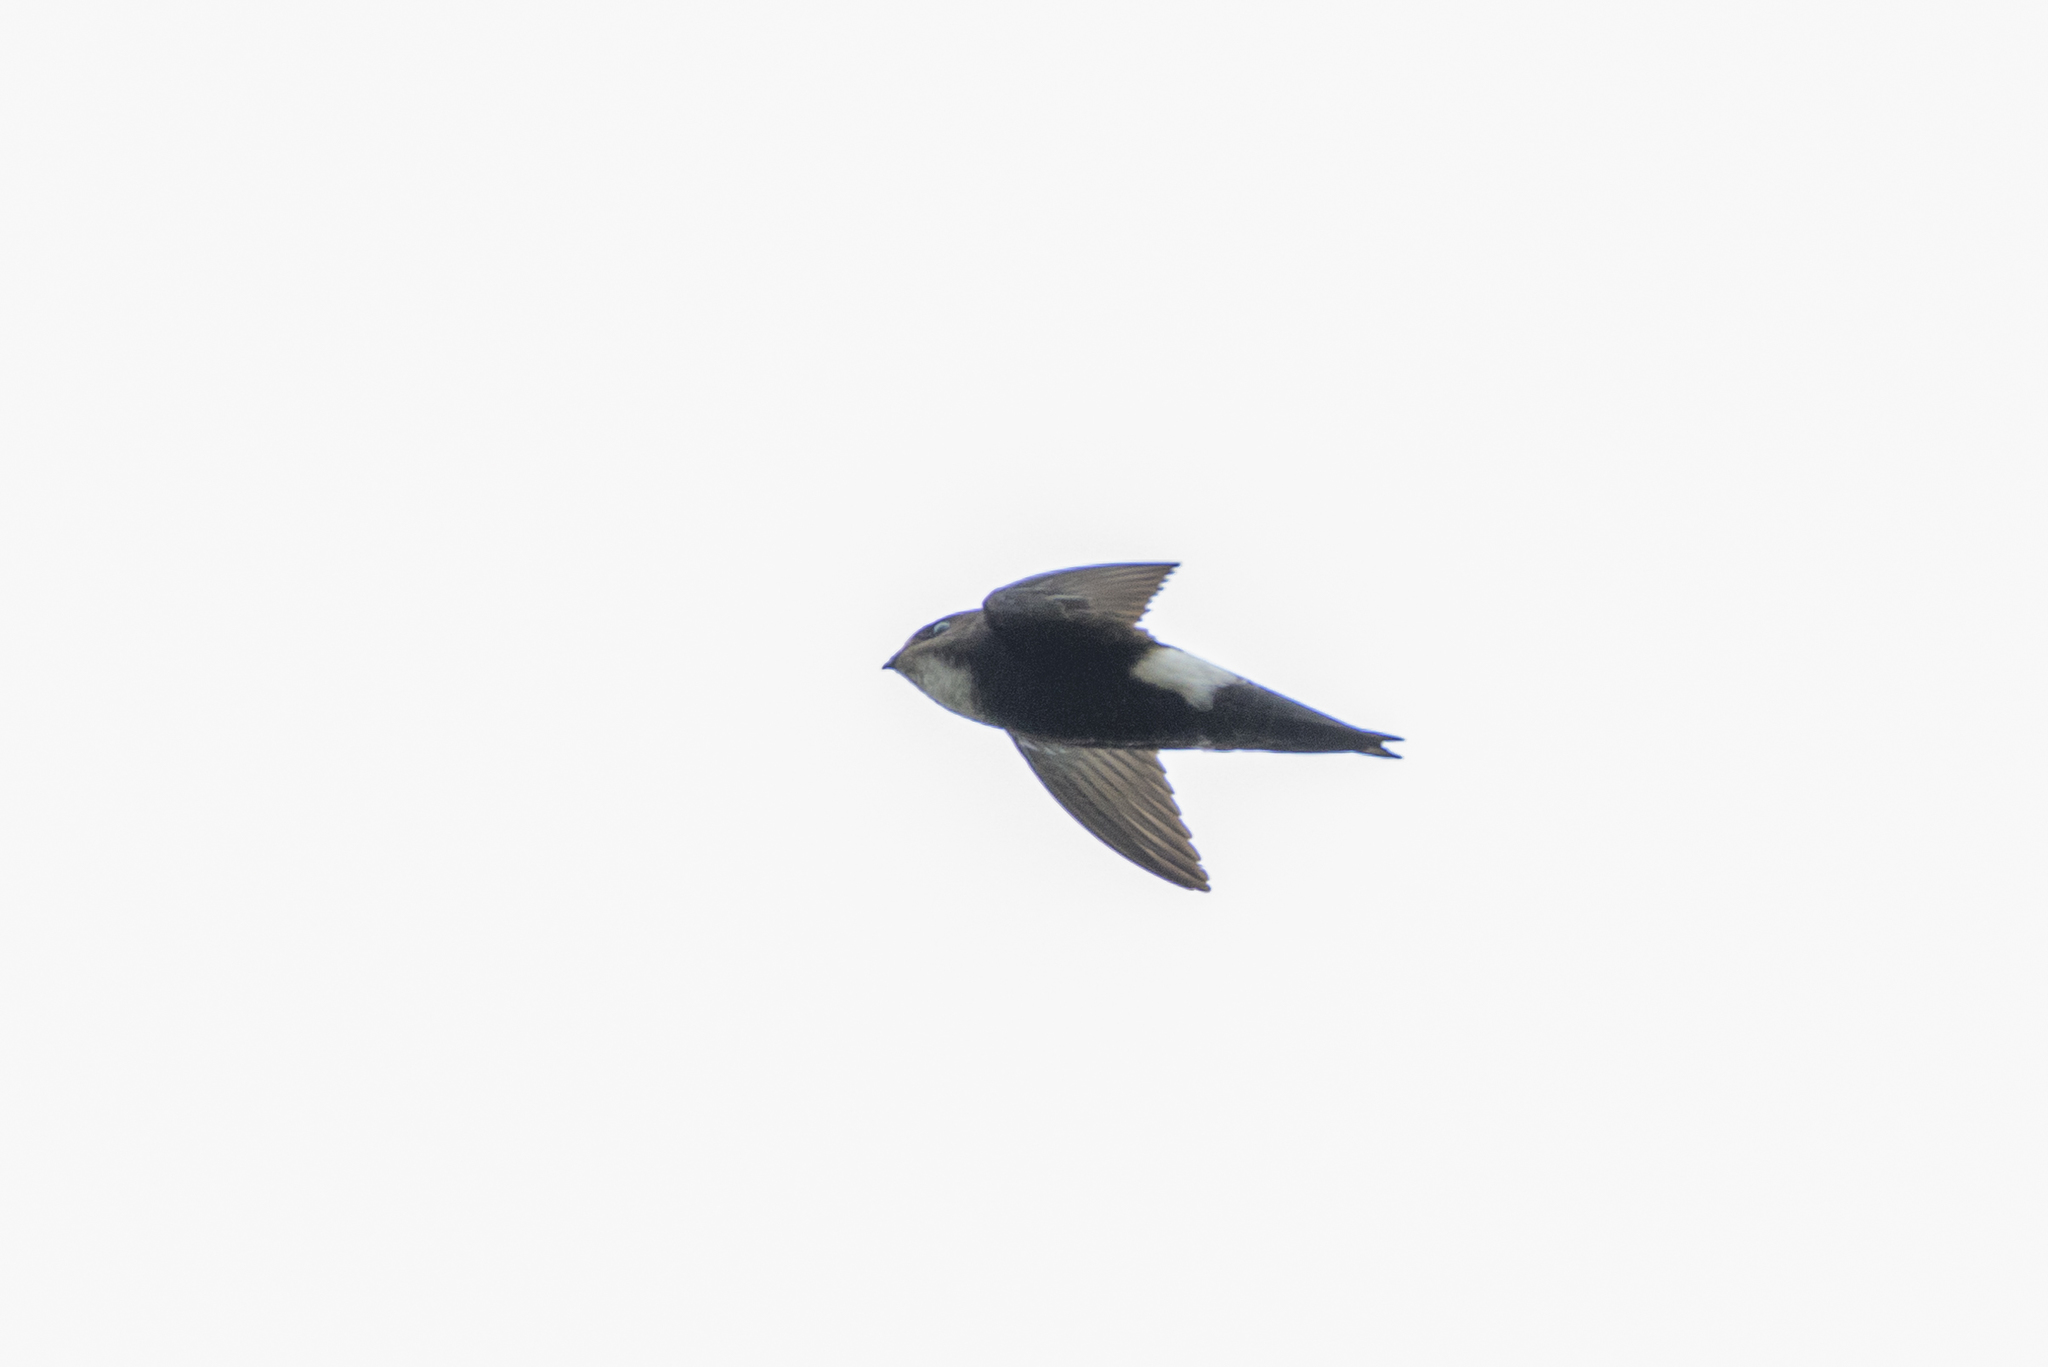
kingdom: Animalia
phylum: Chordata
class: Aves
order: Apodiformes
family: Apodidae
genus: Apus
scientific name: Apus nipalensis
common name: House swift
